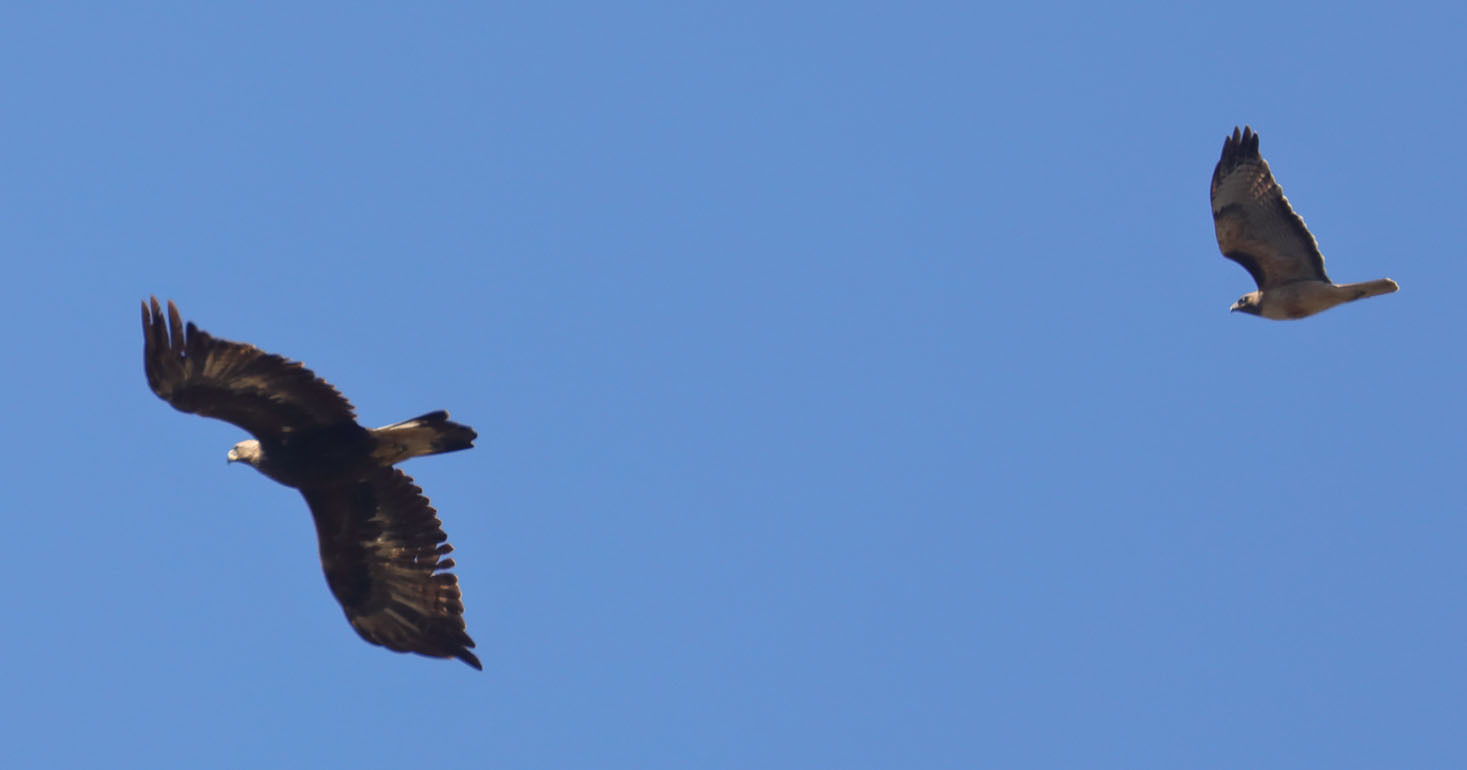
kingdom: Animalia
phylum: Chordata
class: Aves
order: Accipitriformes
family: Accipitridae
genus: Aquila
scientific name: Aquila chrysaetos
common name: Golden eagle
